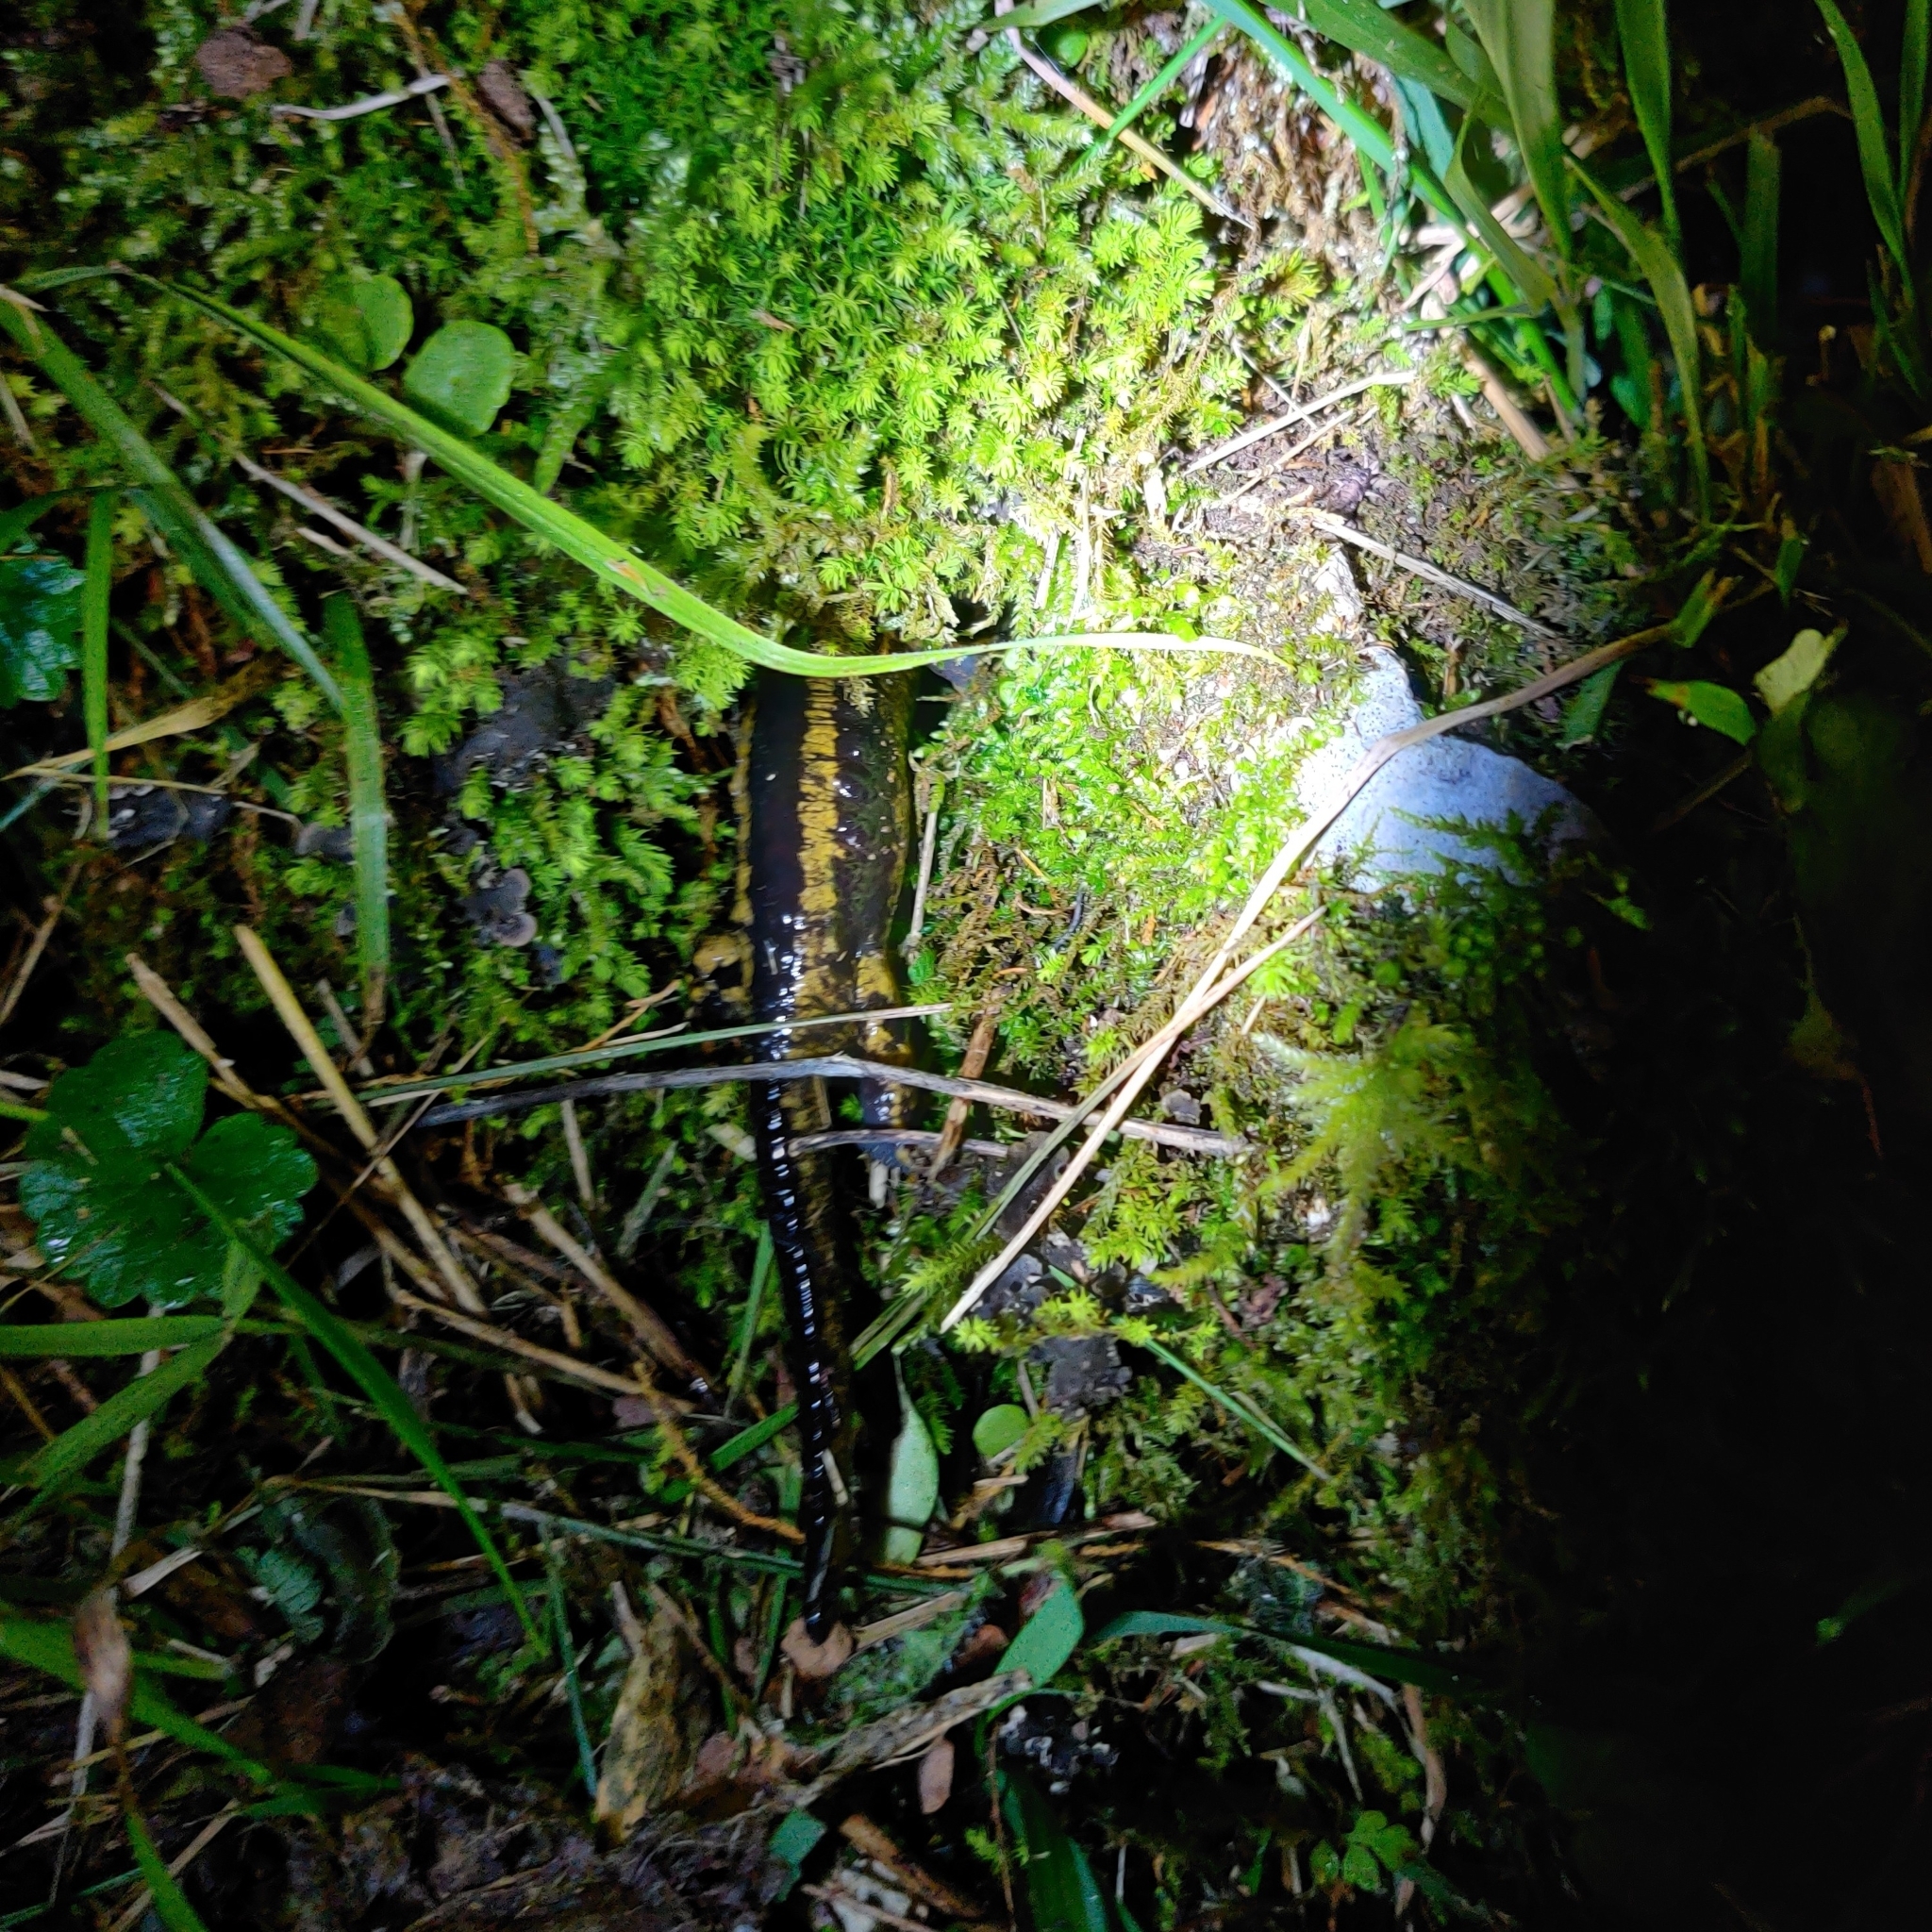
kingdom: Animalia
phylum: Chordata
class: Amphibia
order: Caudata
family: Salamandridae
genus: Salamandra
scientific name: Salamandra salamandra
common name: Fire salamander
